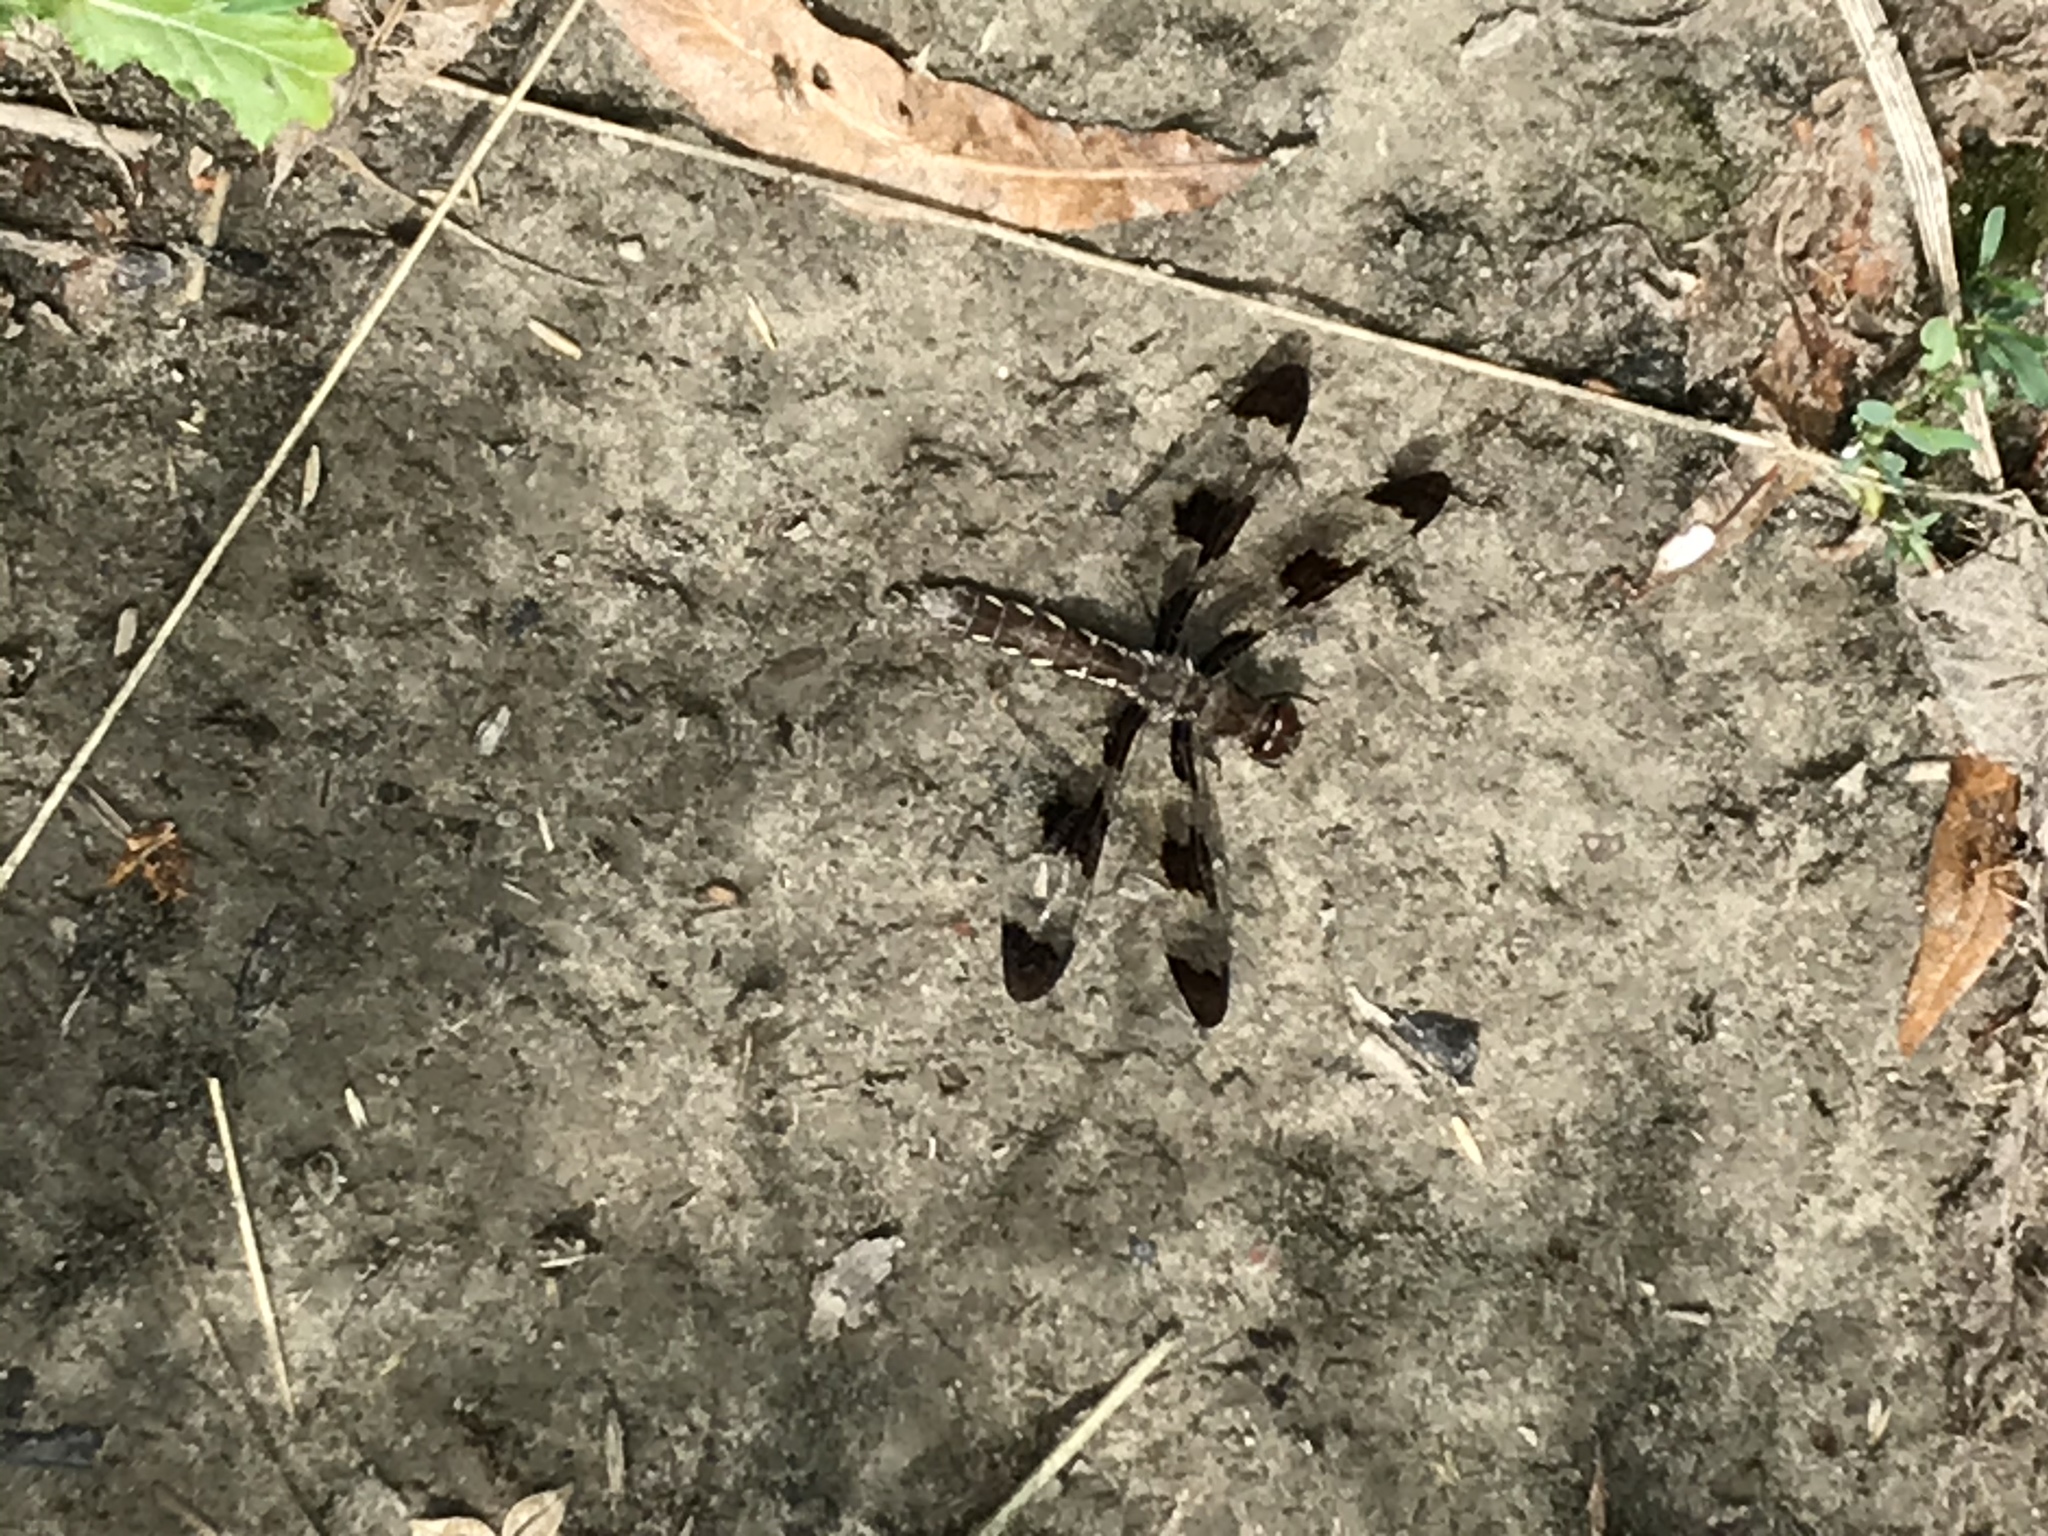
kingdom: Animalia
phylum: Arthropoda
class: Insecta
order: Odonata
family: Libellulidae
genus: Plathemis
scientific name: Plathemis lydia
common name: Common whitetail
